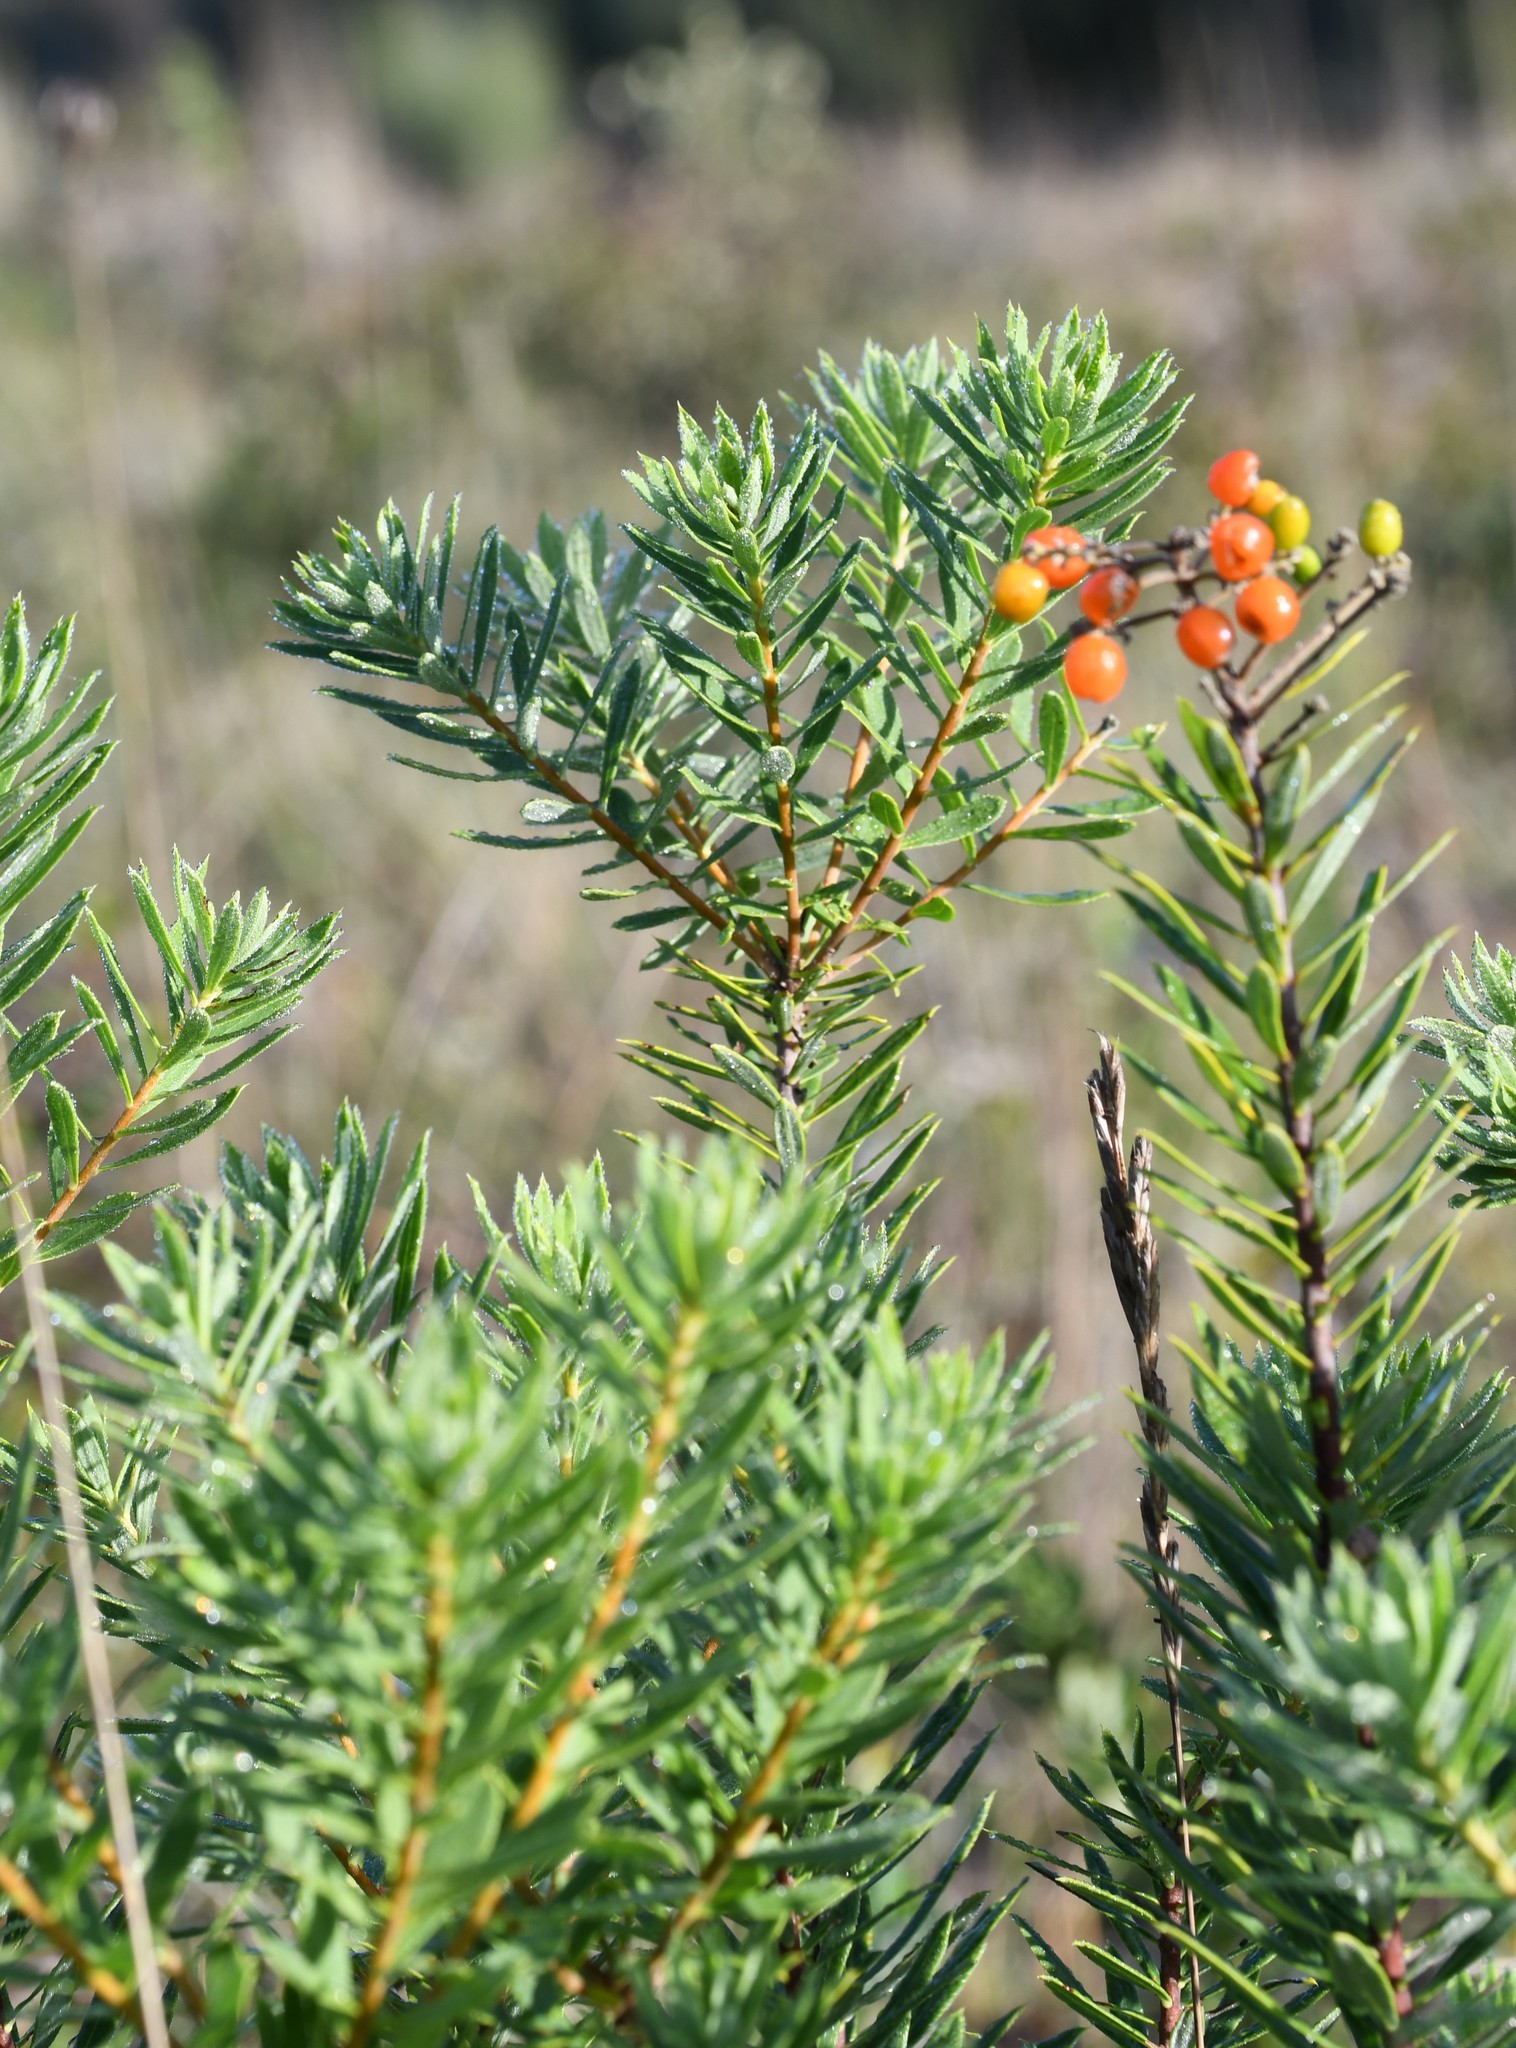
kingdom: Plantae
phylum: Tracheophyta
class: Magnoliopsida
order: Malvales
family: Thymelaeaceae
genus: Daphne
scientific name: Daphne gnidium
